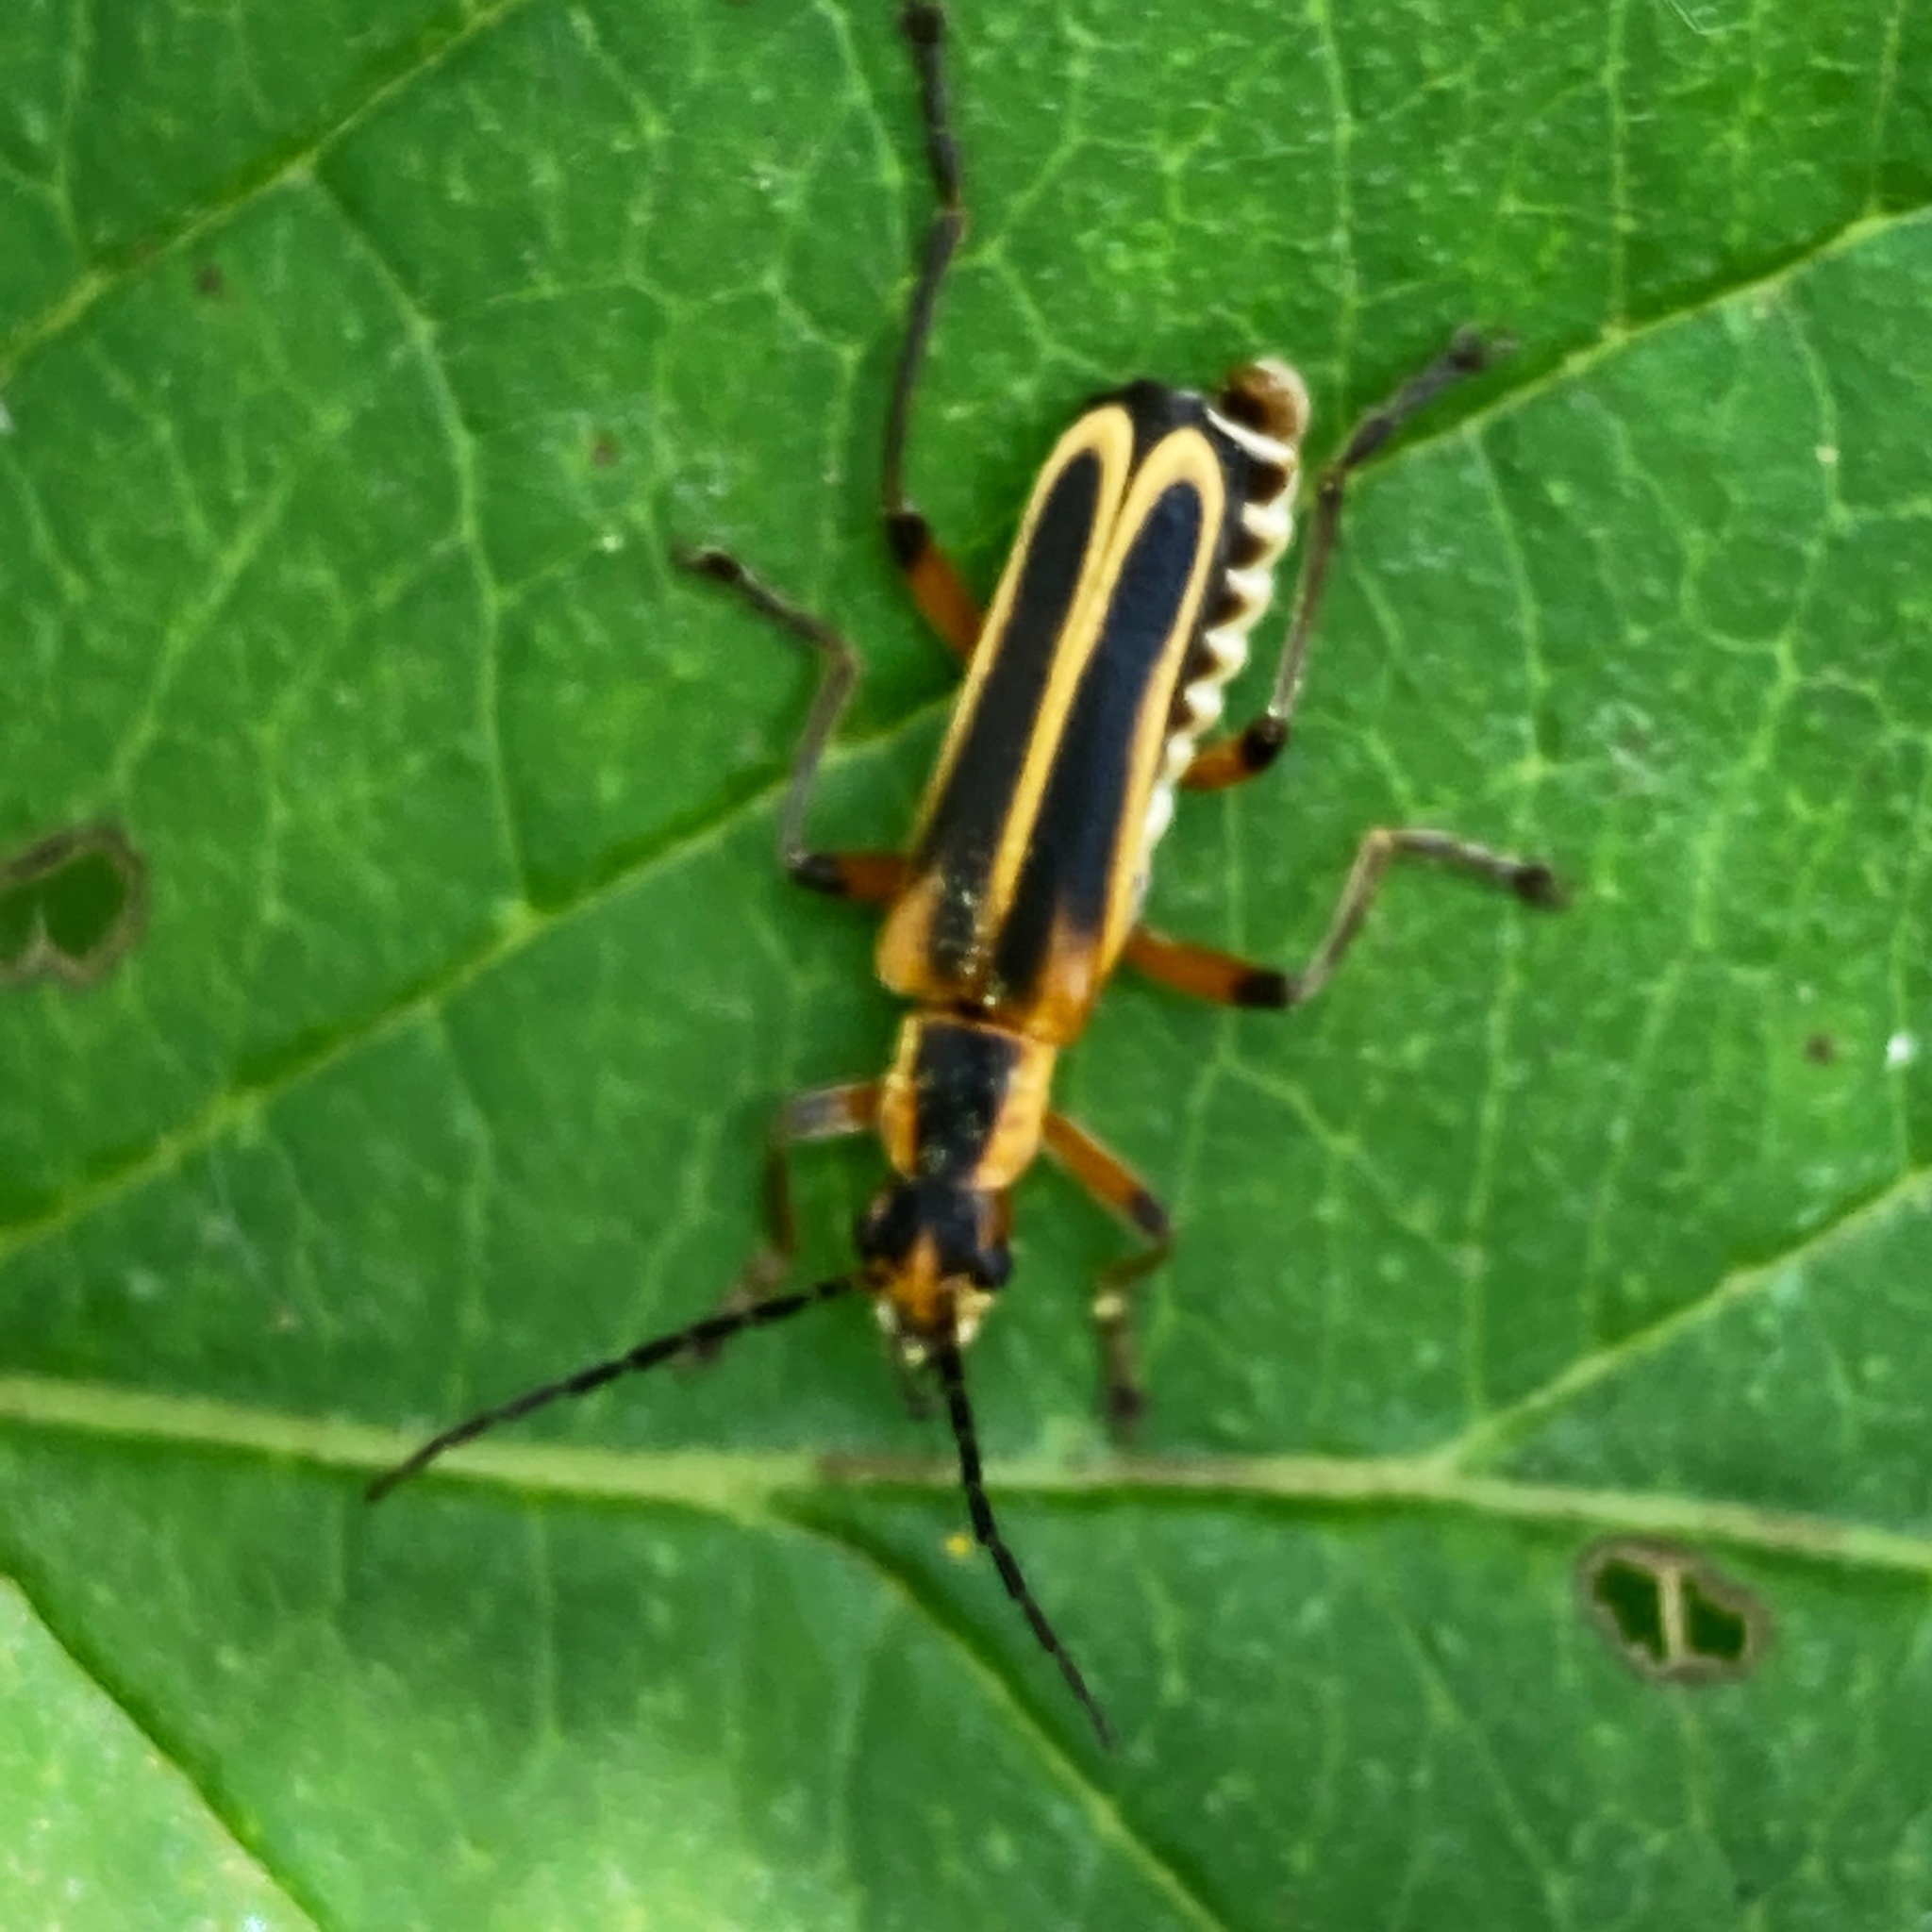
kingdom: Animalia
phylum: Arthropoda
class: Insecta
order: Coleoptera
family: Cantharidae
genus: Chauliognathus
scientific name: Chauliognathus marginatus
